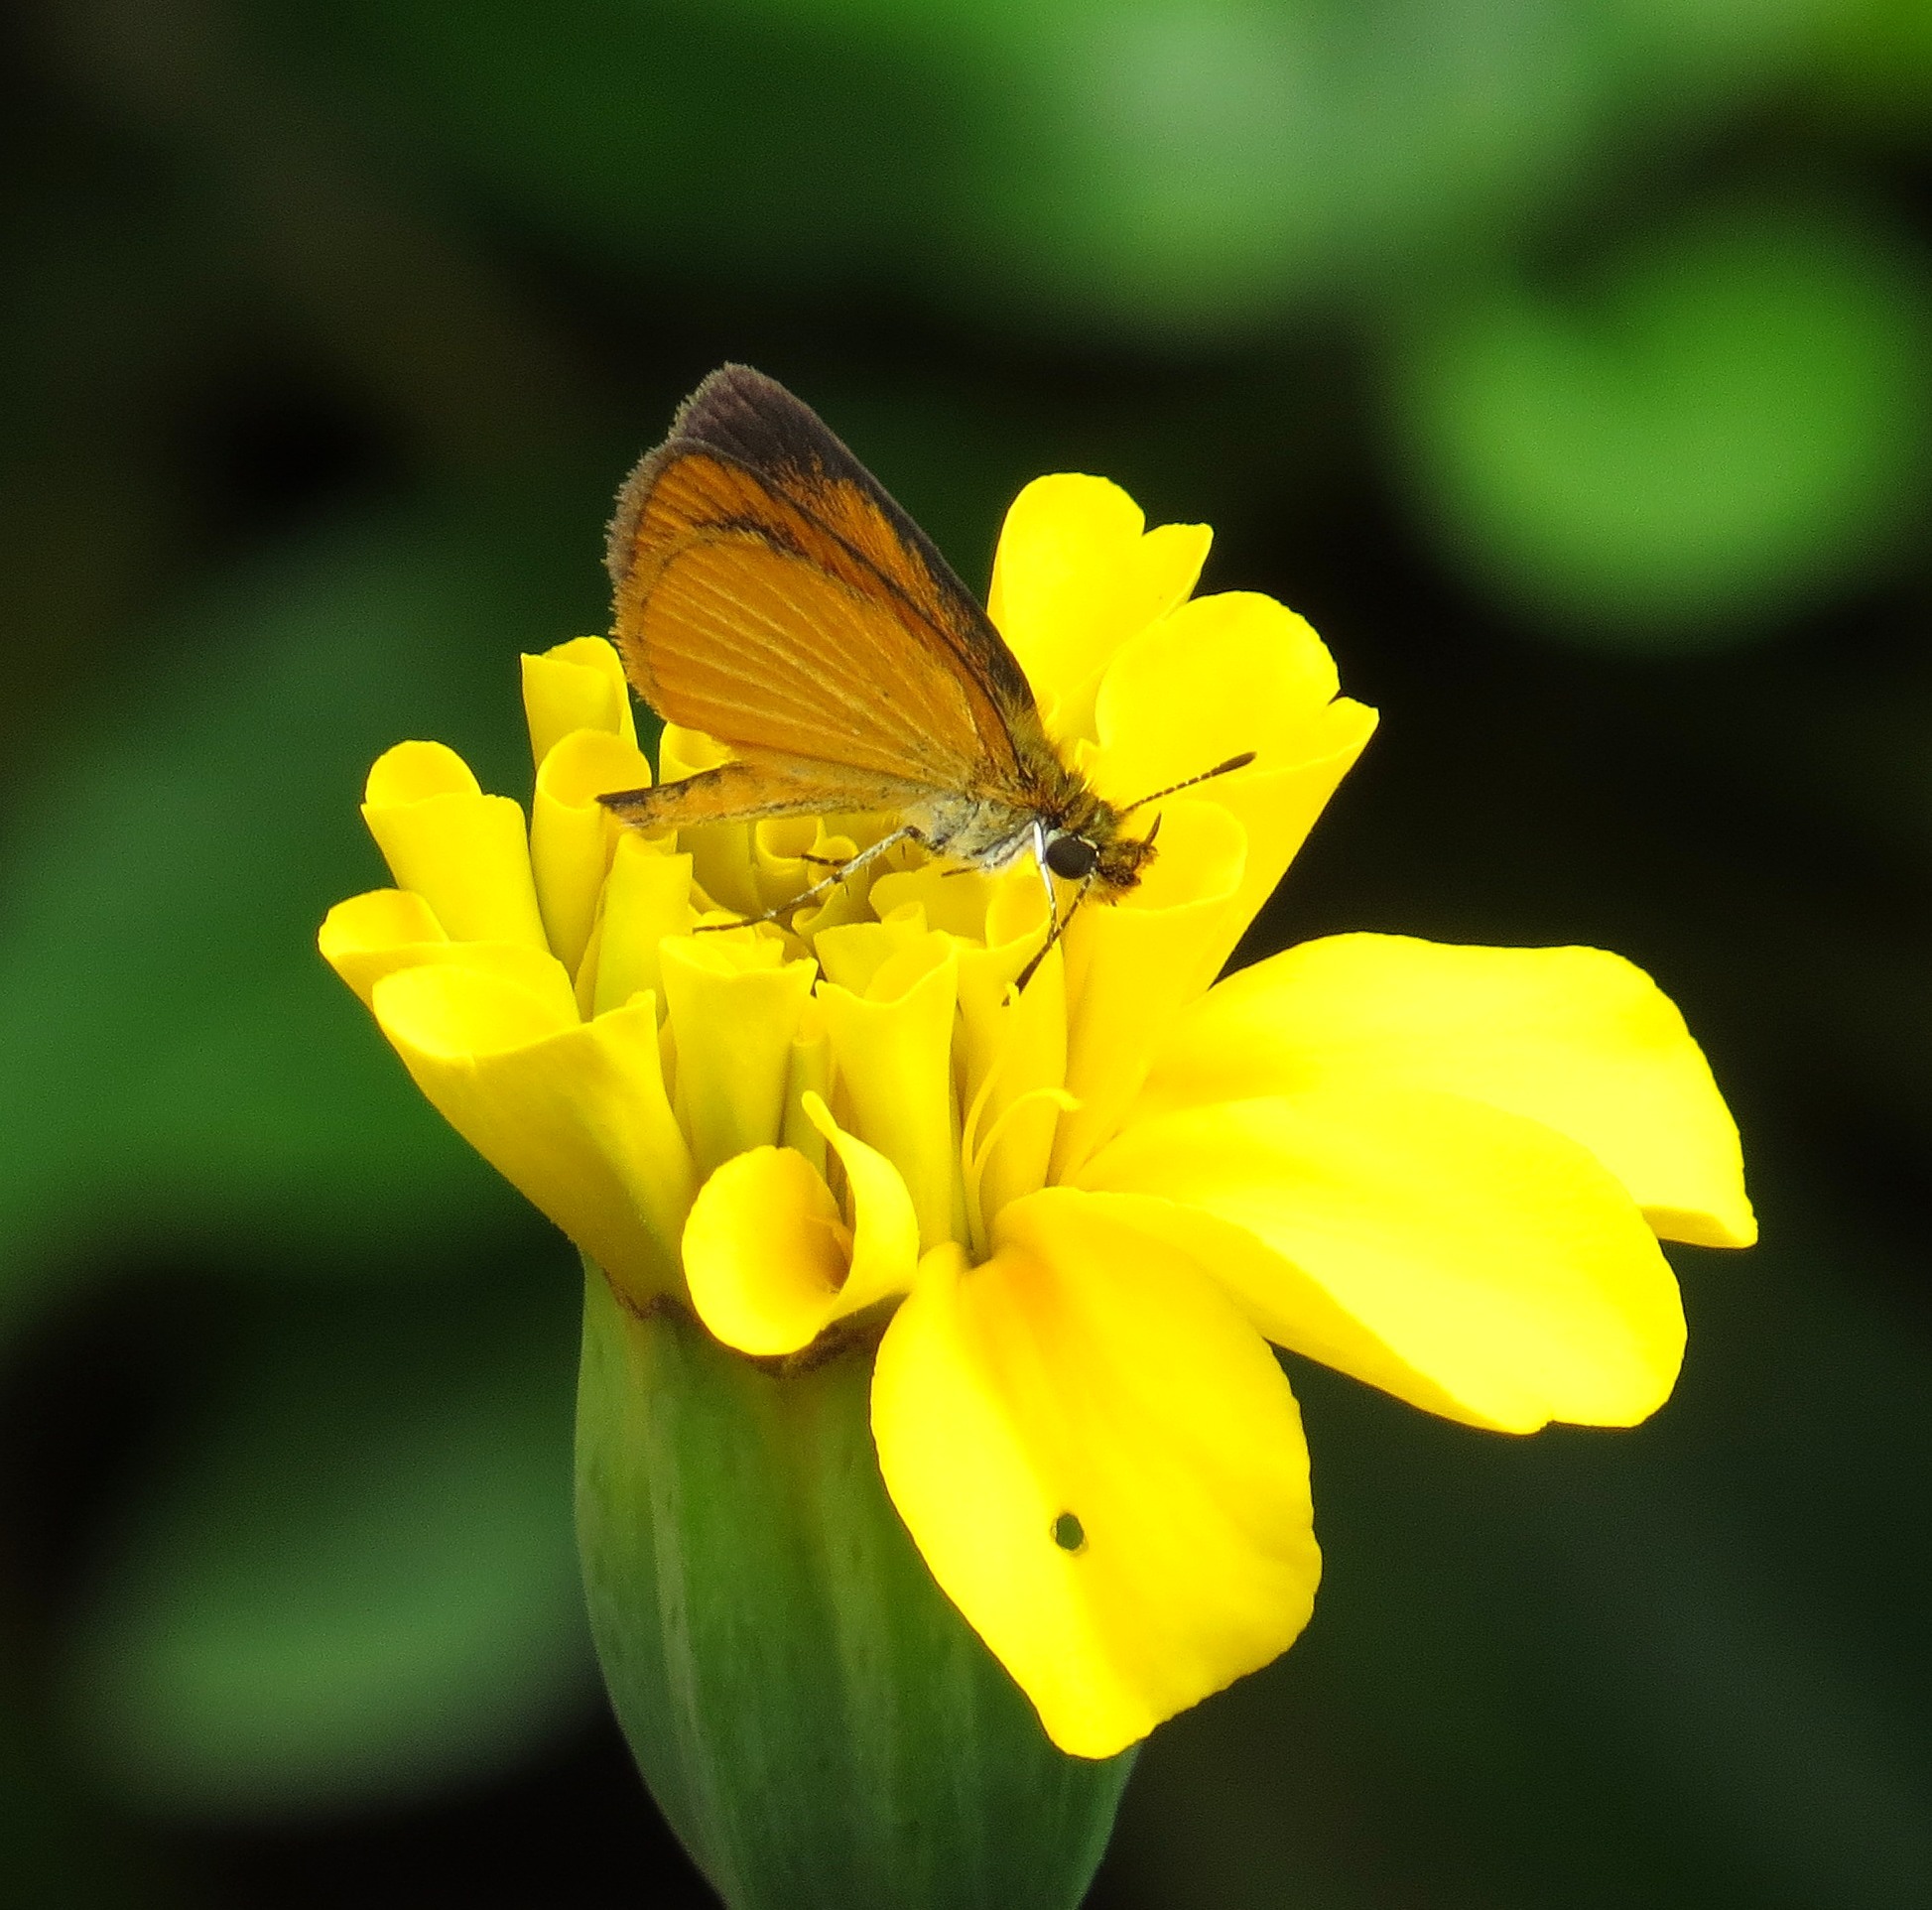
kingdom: Animalia
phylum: Arthropoda
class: Insecta
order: Lepidoptera
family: Hesperiidae
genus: Ancyloxypha
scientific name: Ancyloxypha numitor
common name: Least skipper
